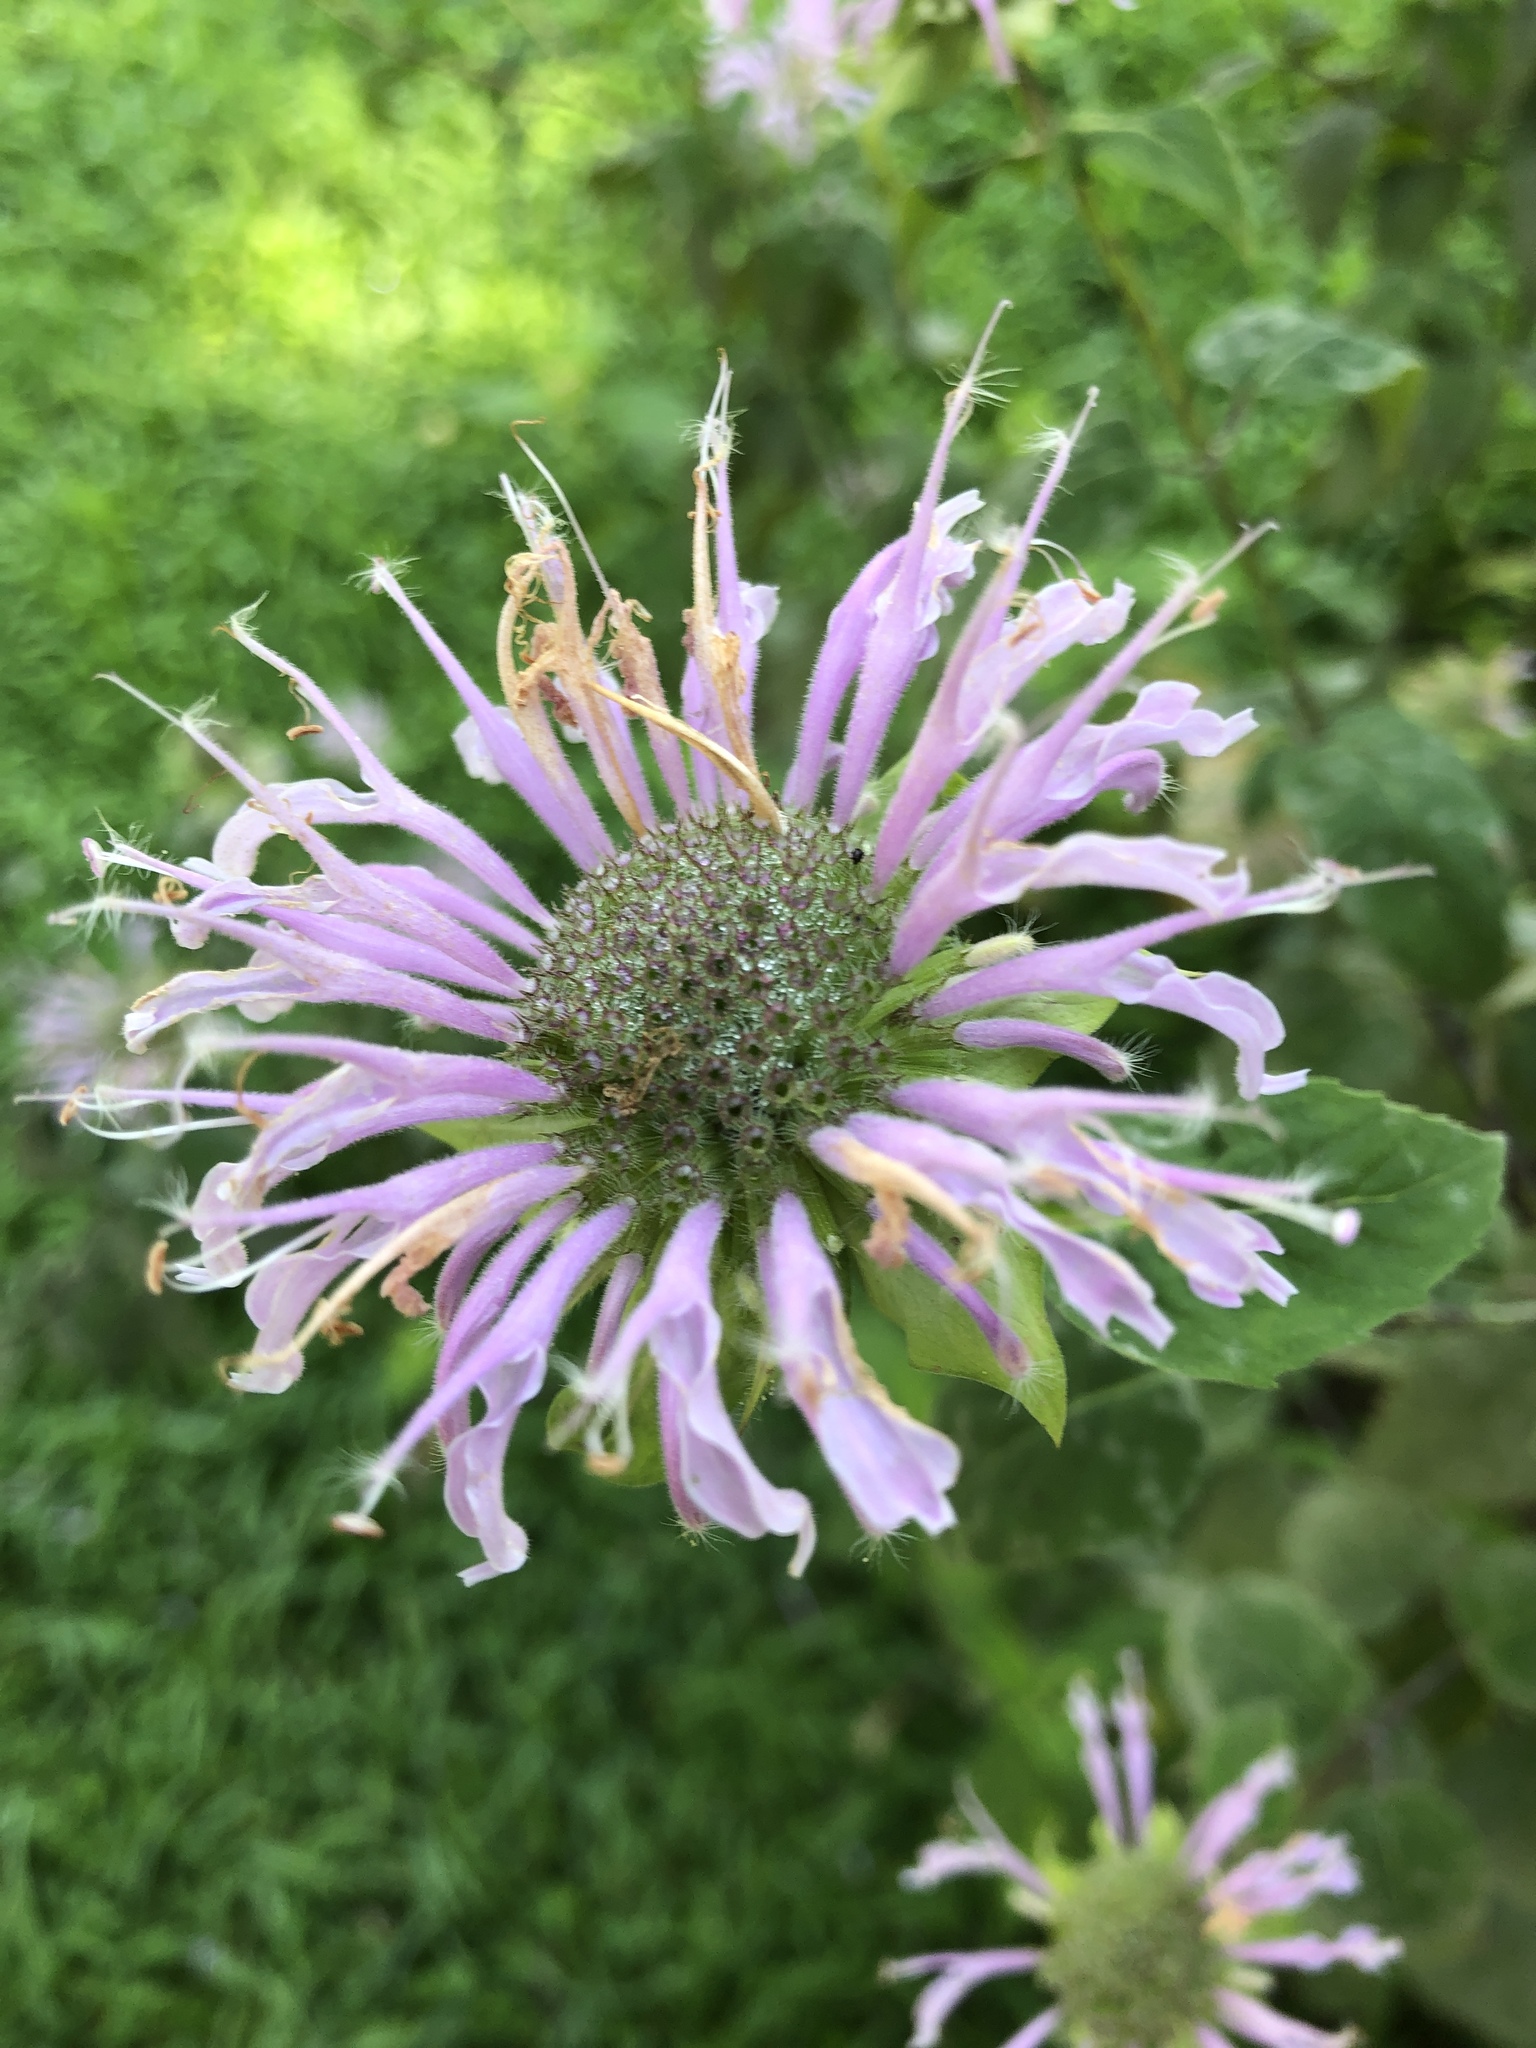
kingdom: Plantae
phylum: Tracheophyta
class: Magnoliopsida
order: Lamiales
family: Lamiaceae
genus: Monarda
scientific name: Monarda fistulosa
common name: Purple beebalm
